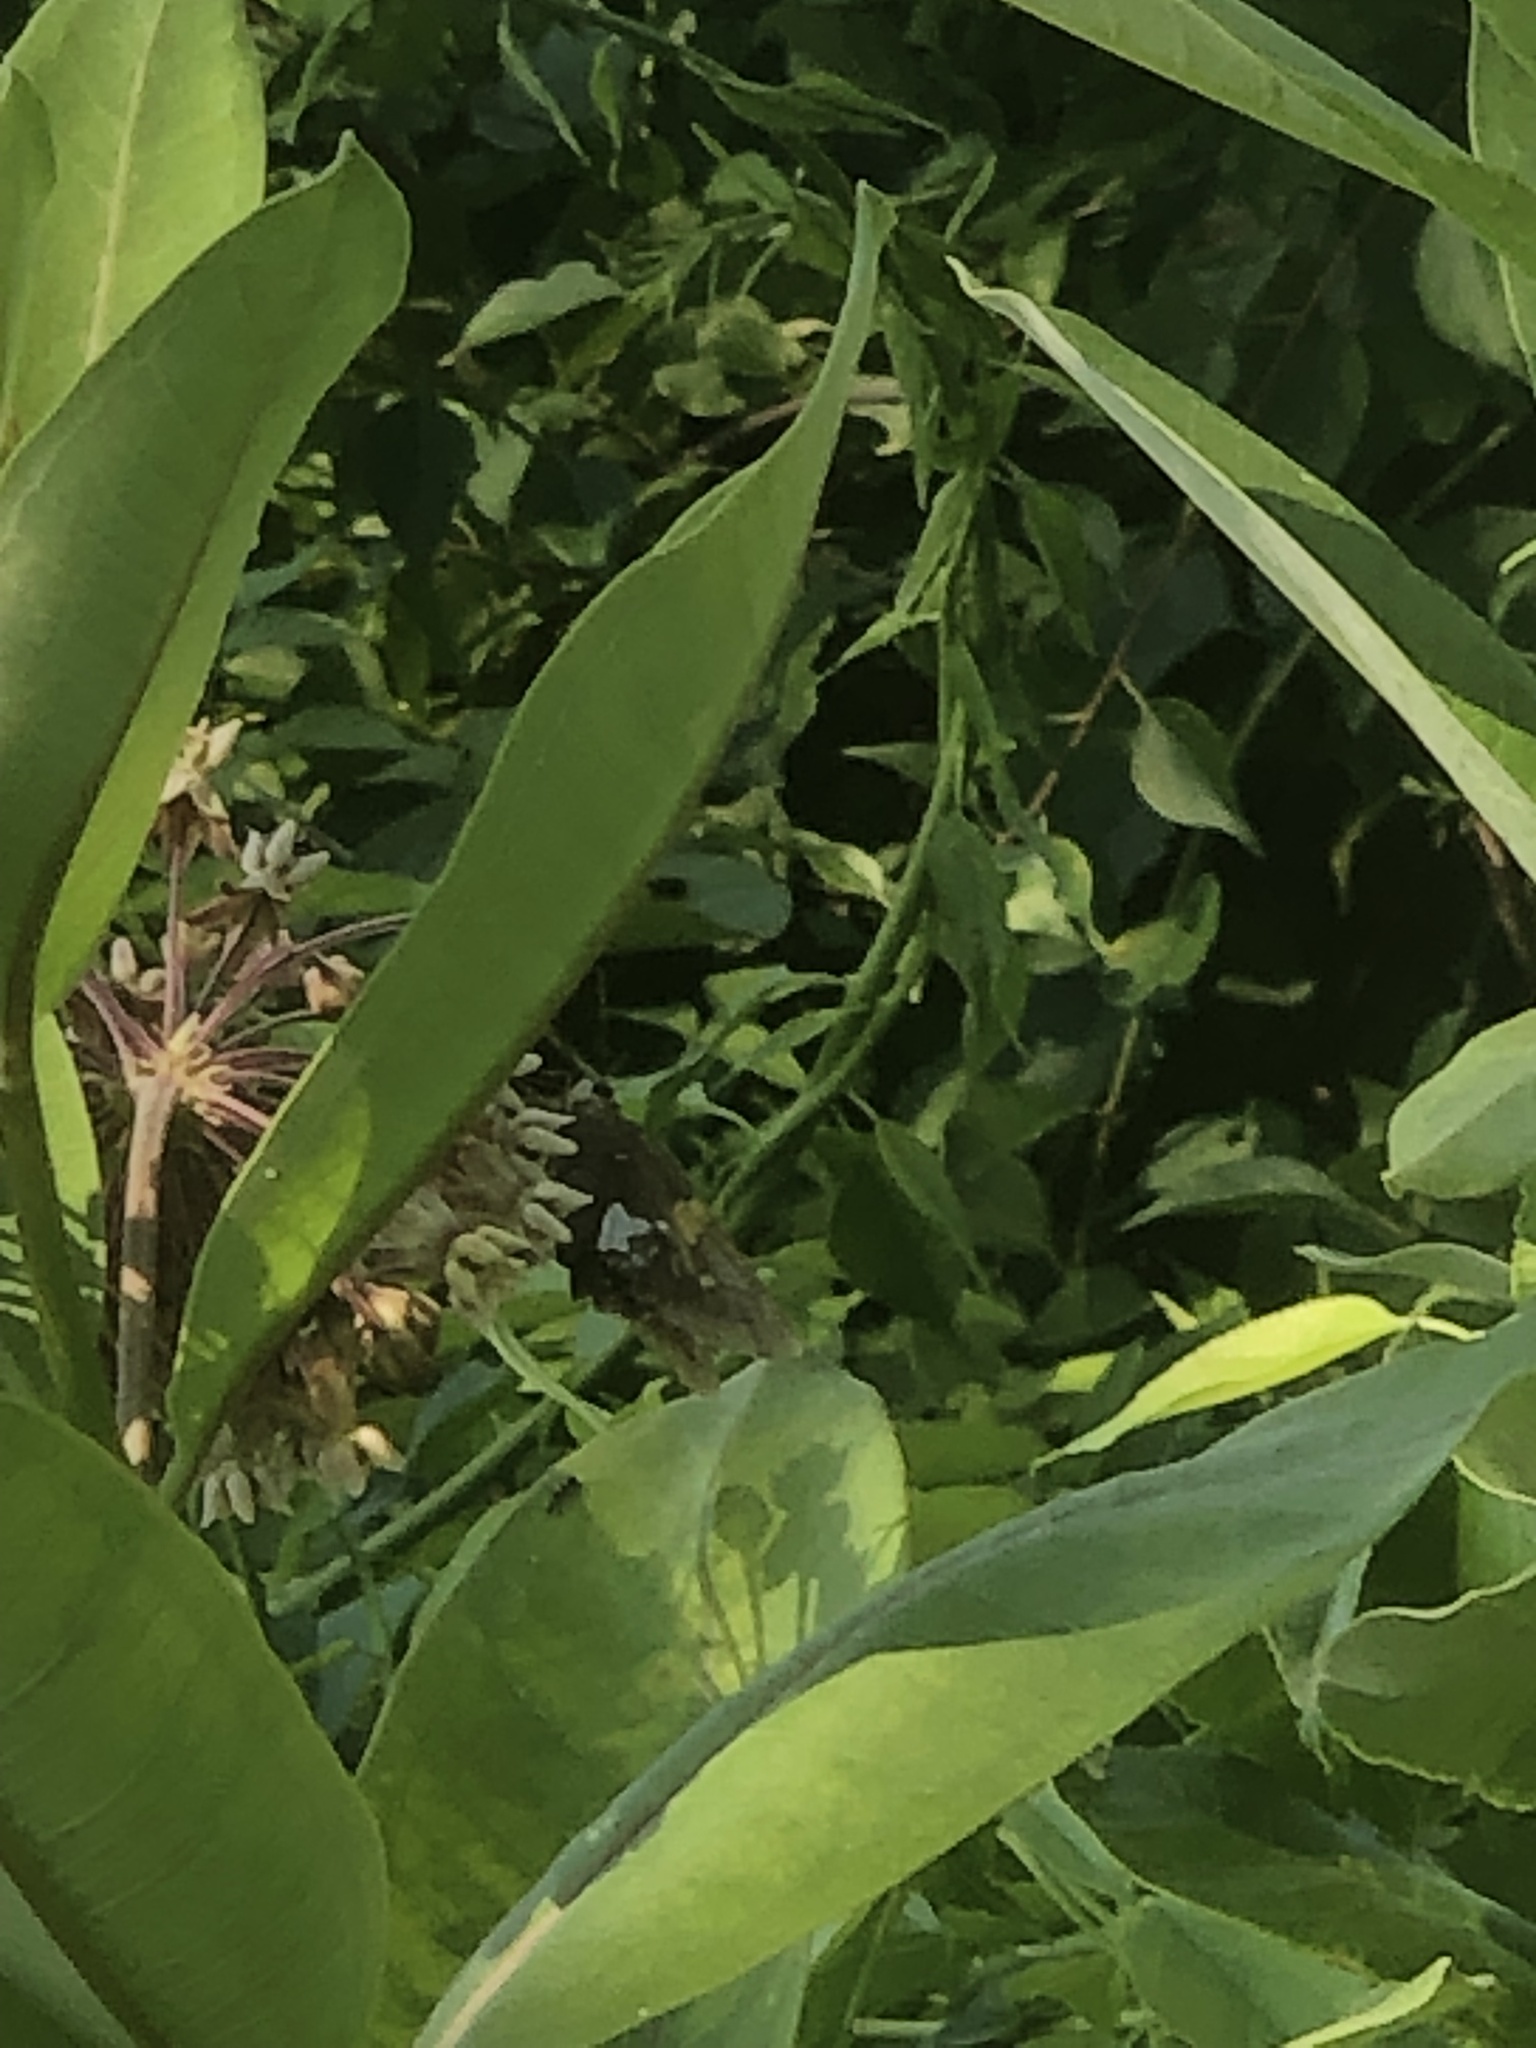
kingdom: Animalia
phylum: Arthropoda
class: Insecta
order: Lepidoptera
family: Hesperiidae
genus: Epargyreus
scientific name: Epargyreus clarus
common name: Silver-spotted skipper
